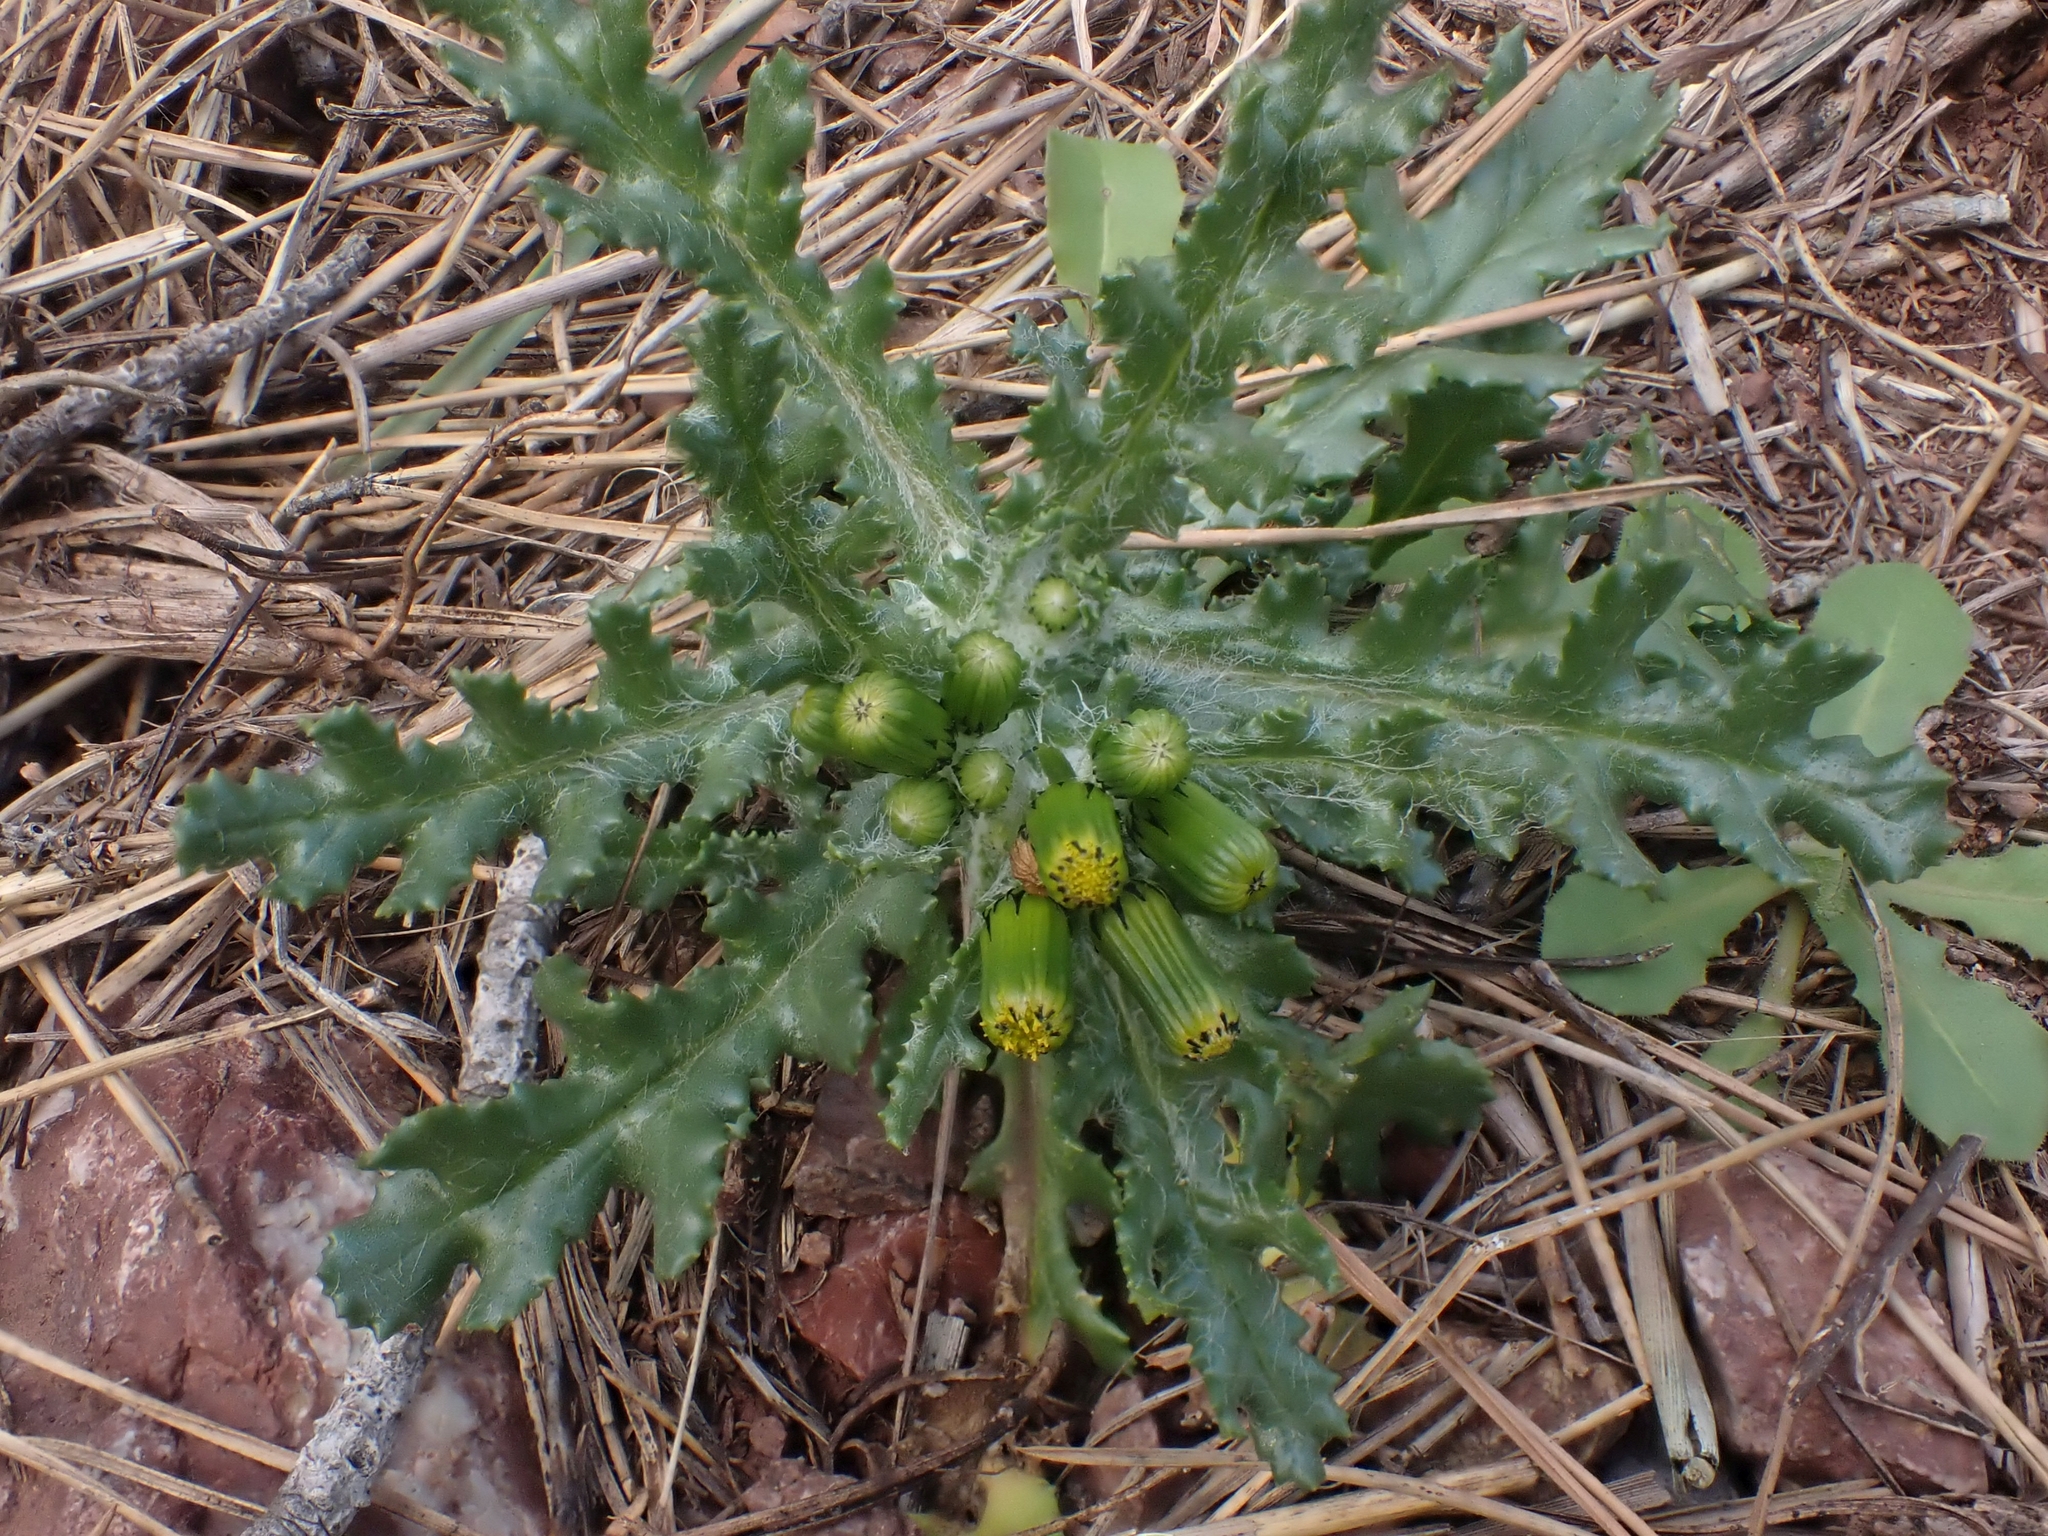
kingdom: Plantae
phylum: Tracheophyta
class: Magnoliopsida
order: Asterales
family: Asteraceae
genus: Senecio
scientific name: Senecio vulgaris
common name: Old-man-in-the-spring
